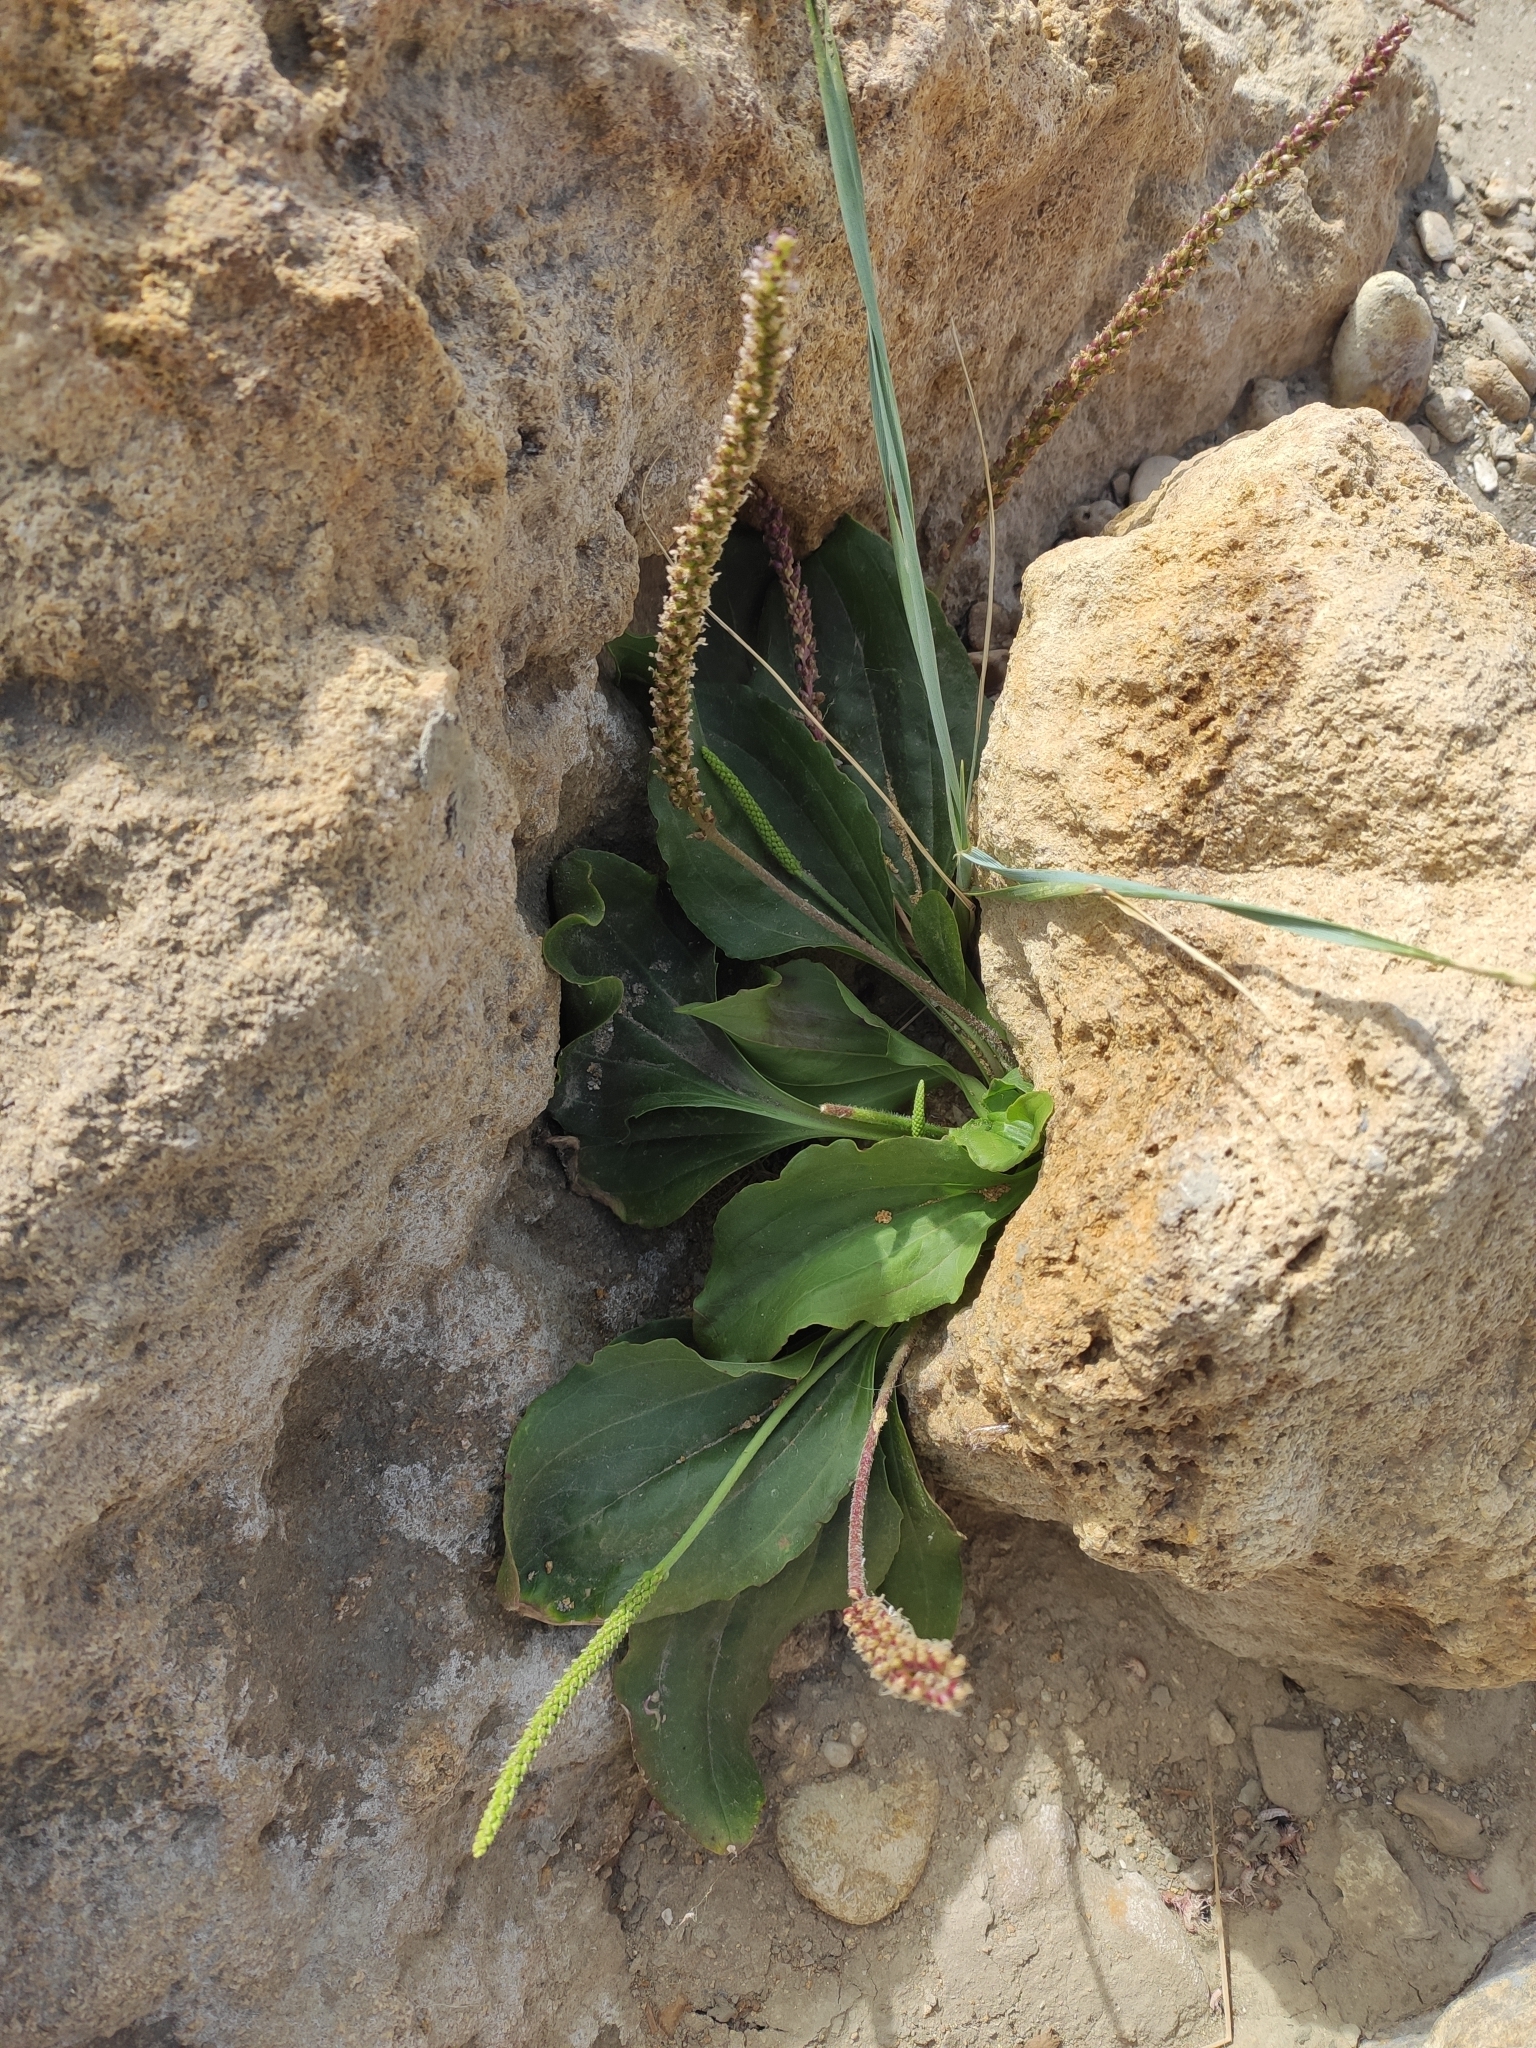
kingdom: Plantae
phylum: Tracheophyta
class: Magnoliopsida
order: Lamiales
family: Plantaginaceae
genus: Plantago
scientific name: Plantago major
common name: Common plantain
